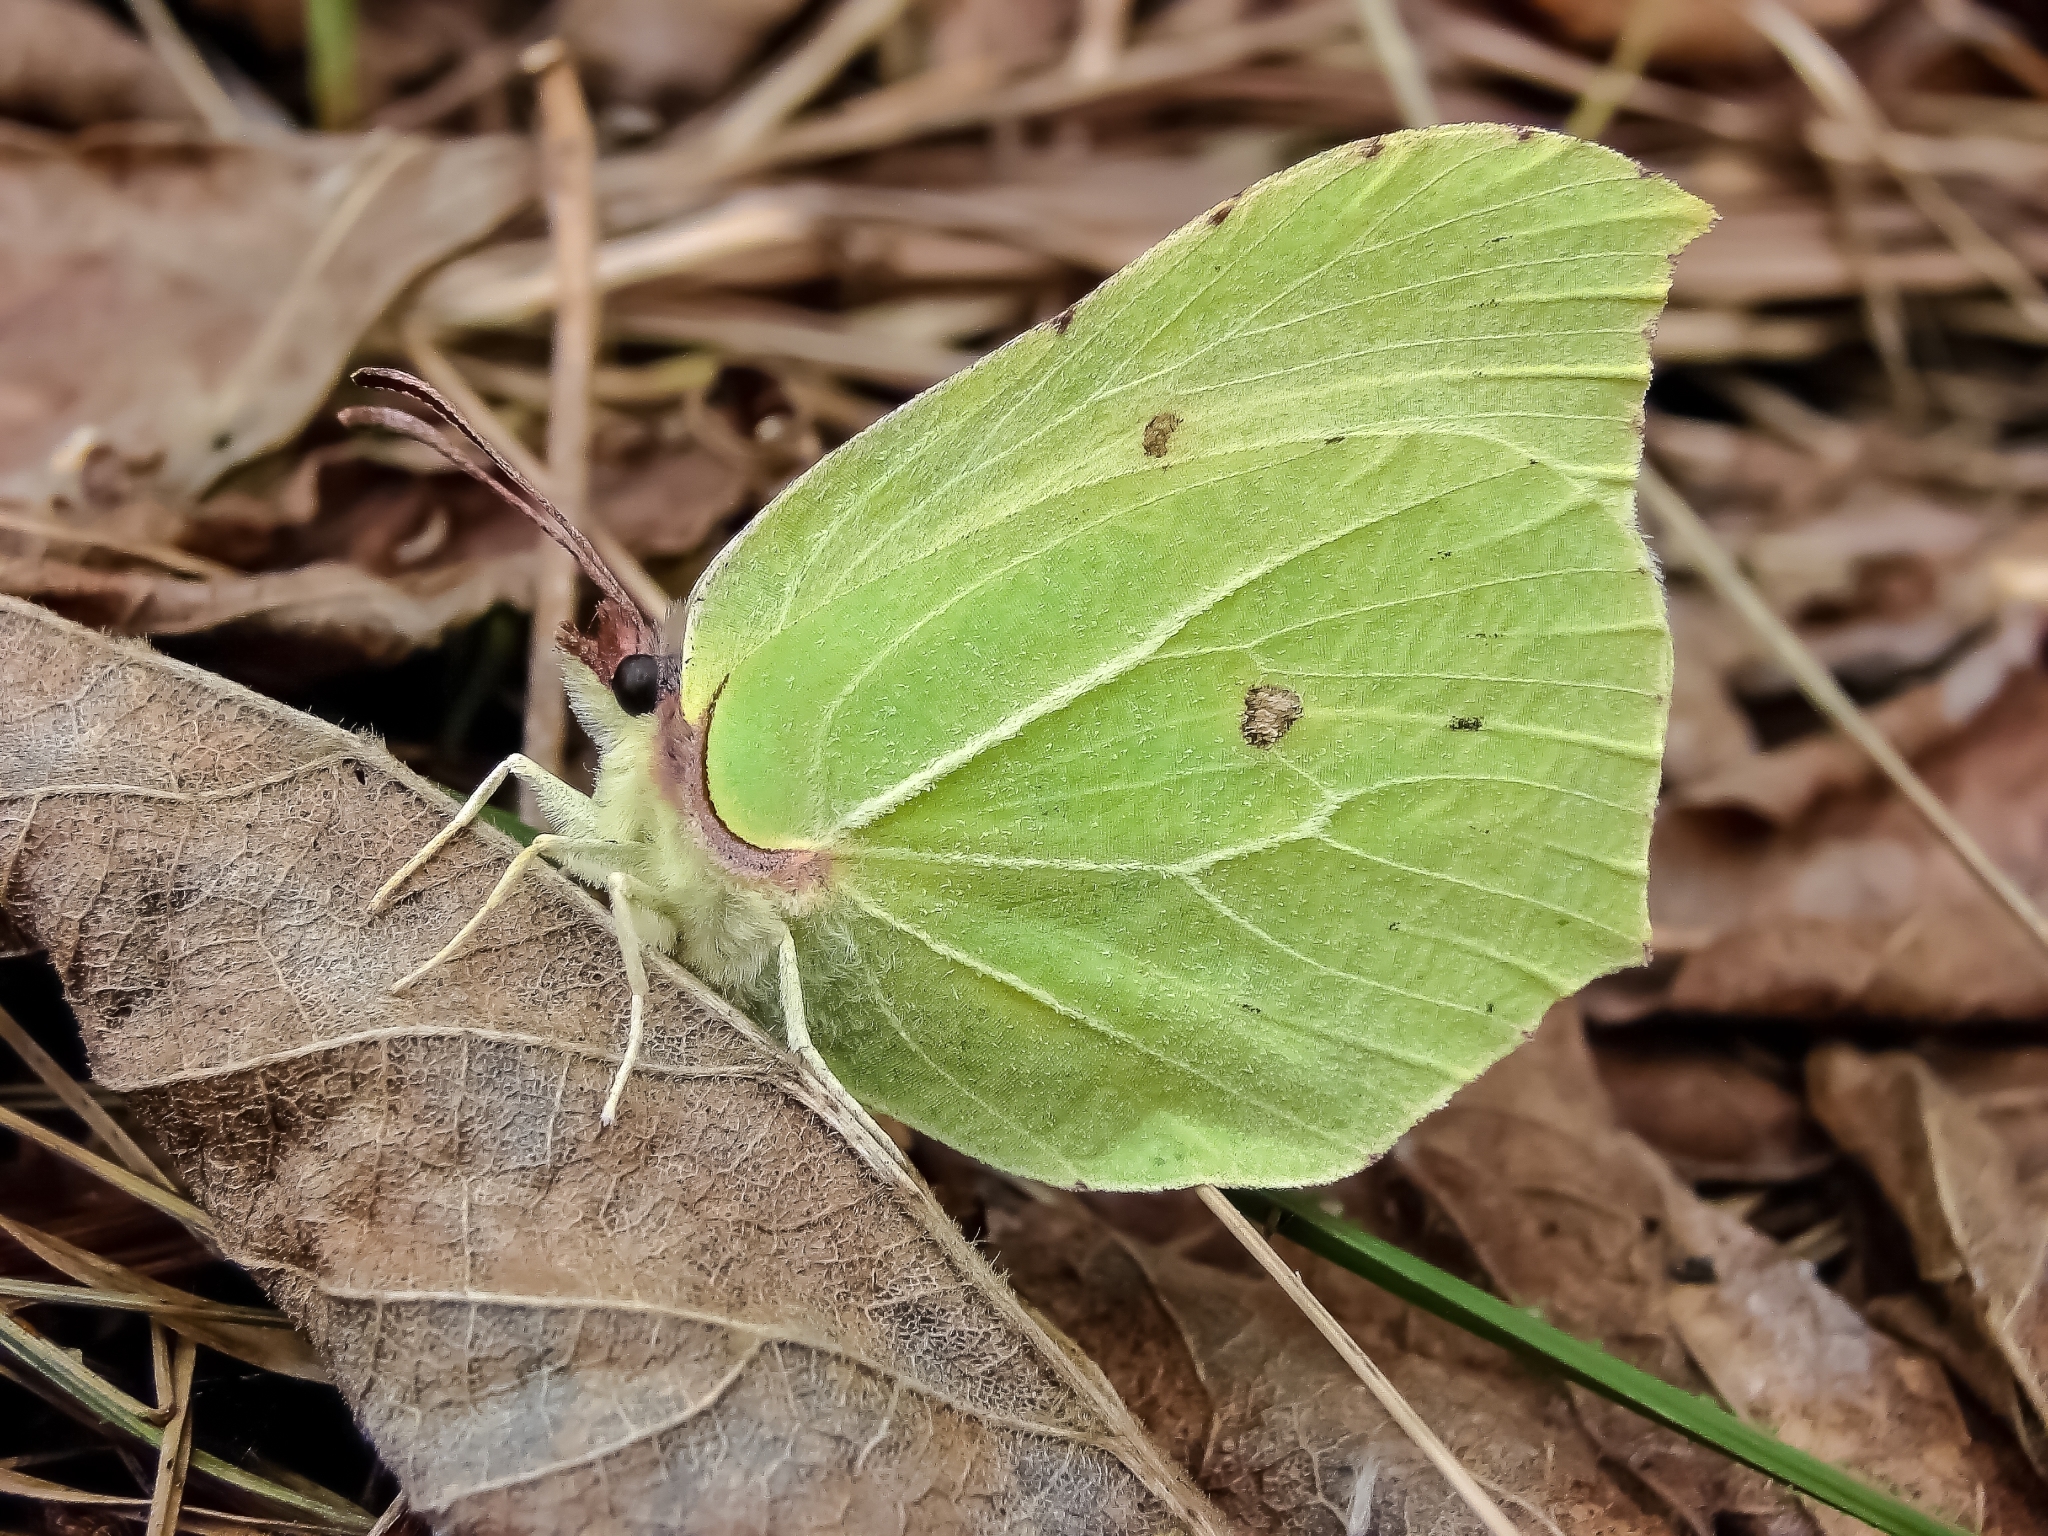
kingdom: Animalia
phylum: Arthropoda
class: Insecta
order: Lepidoptera
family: Pieridae
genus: Gonepteryx
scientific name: Gonepteryx rhamni
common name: Brimstone
